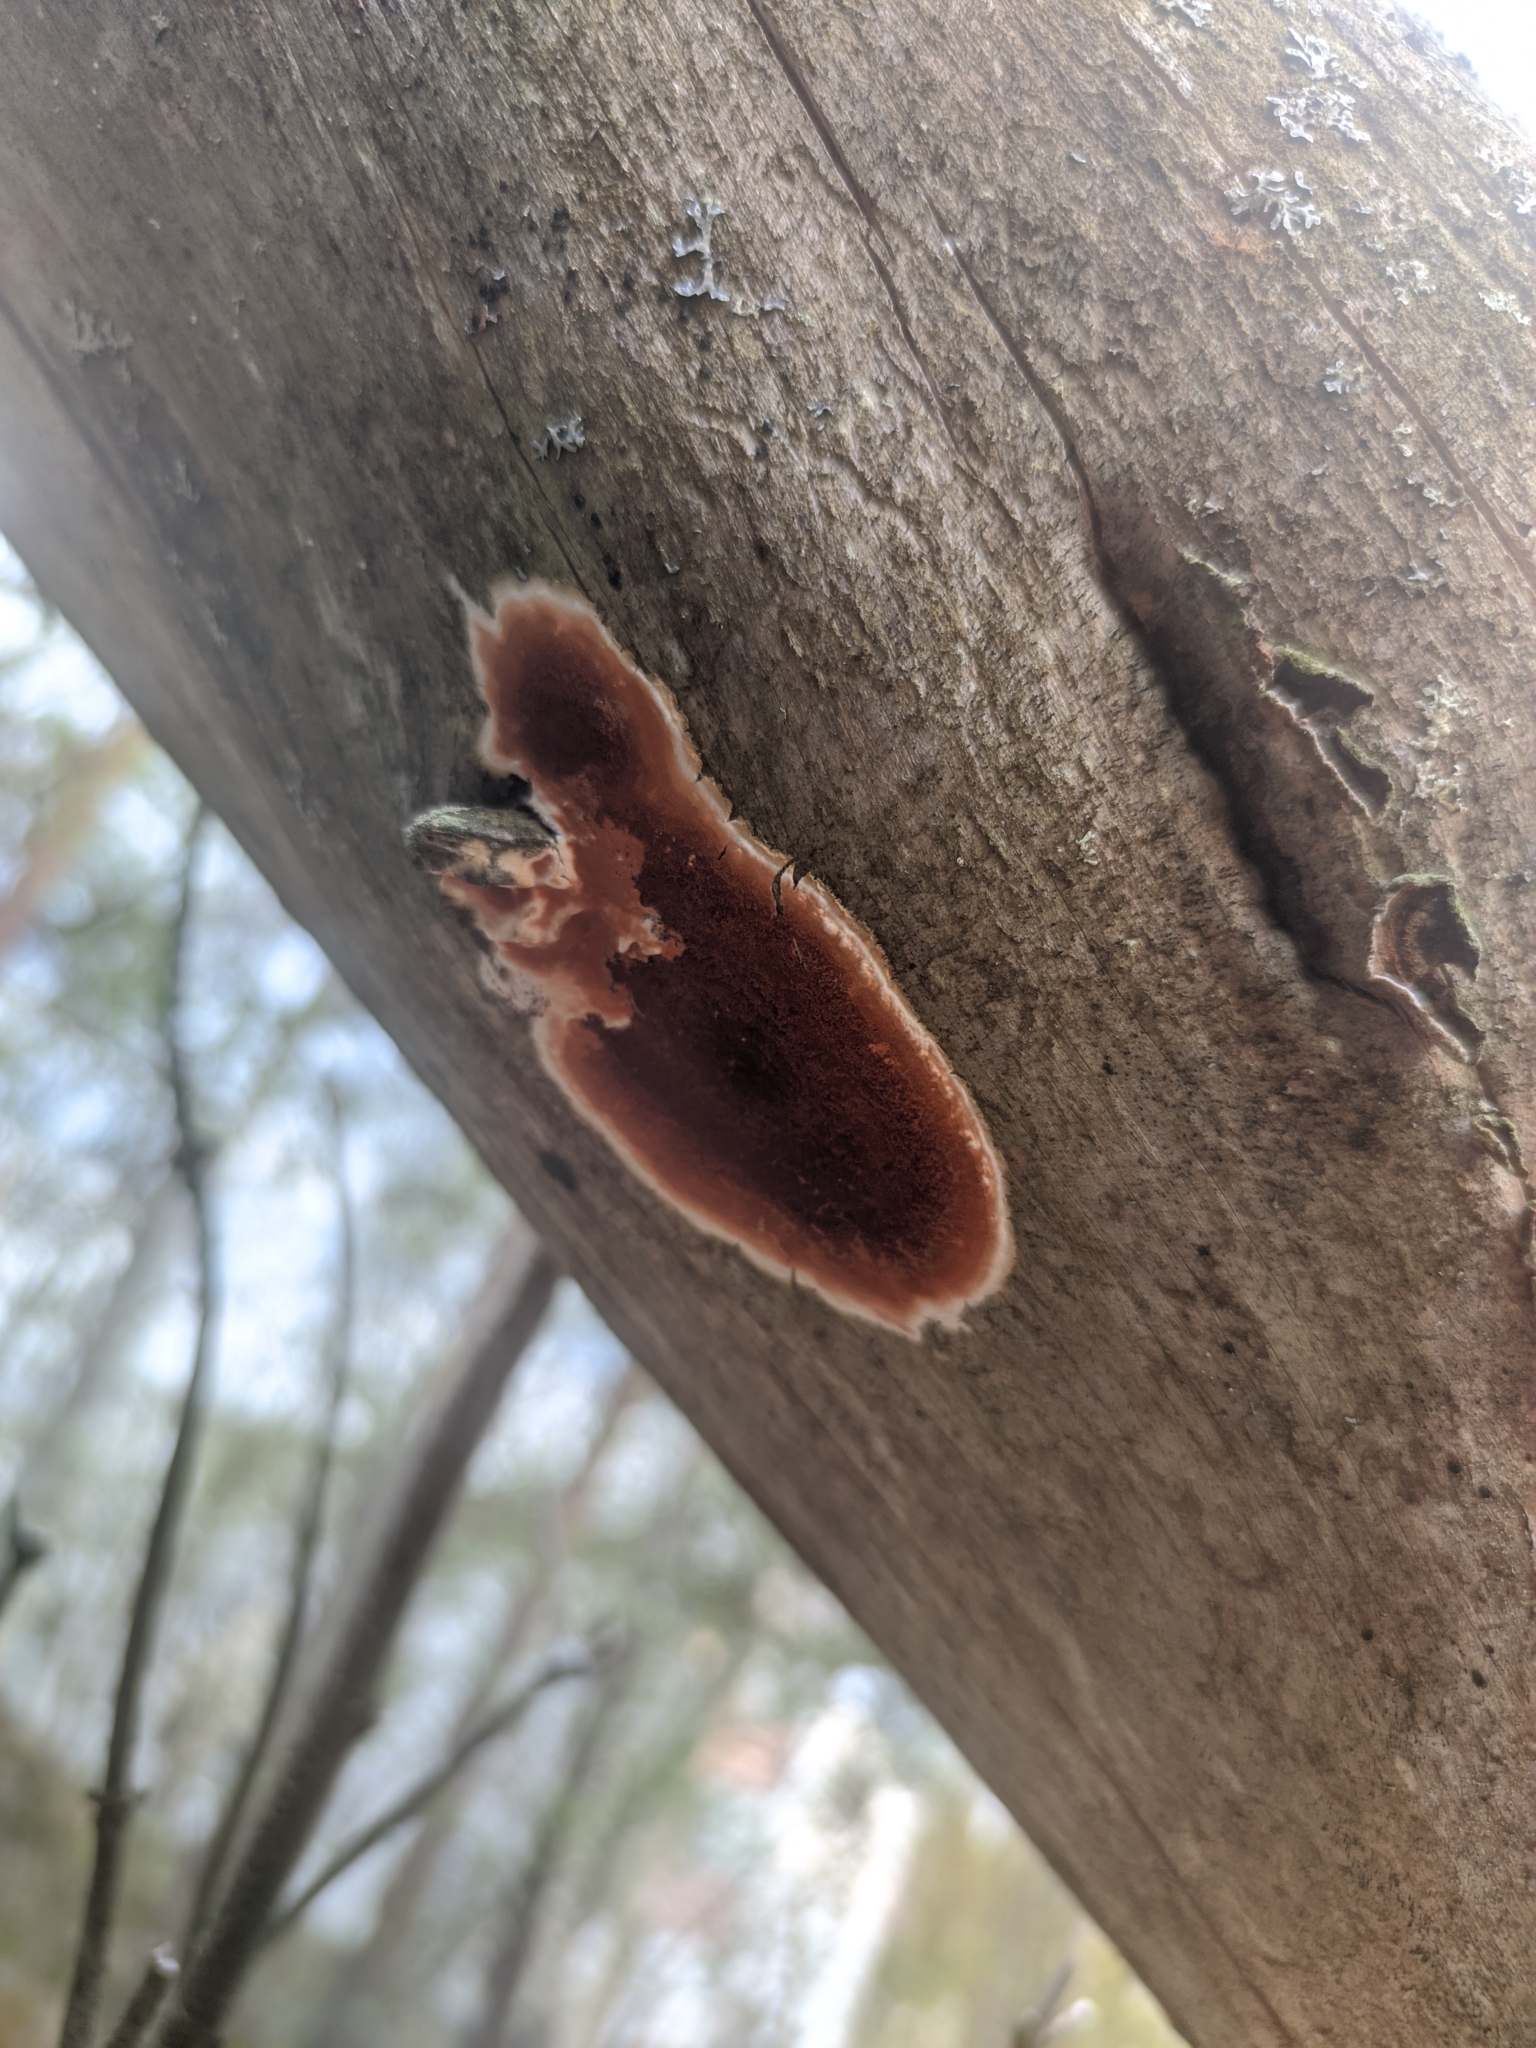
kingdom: Fungi
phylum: Basidiomycota
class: Agaricomycetes
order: Polyporales
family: Irpicaceae
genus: Meruliopsis
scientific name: Meruliopsis taxicola
